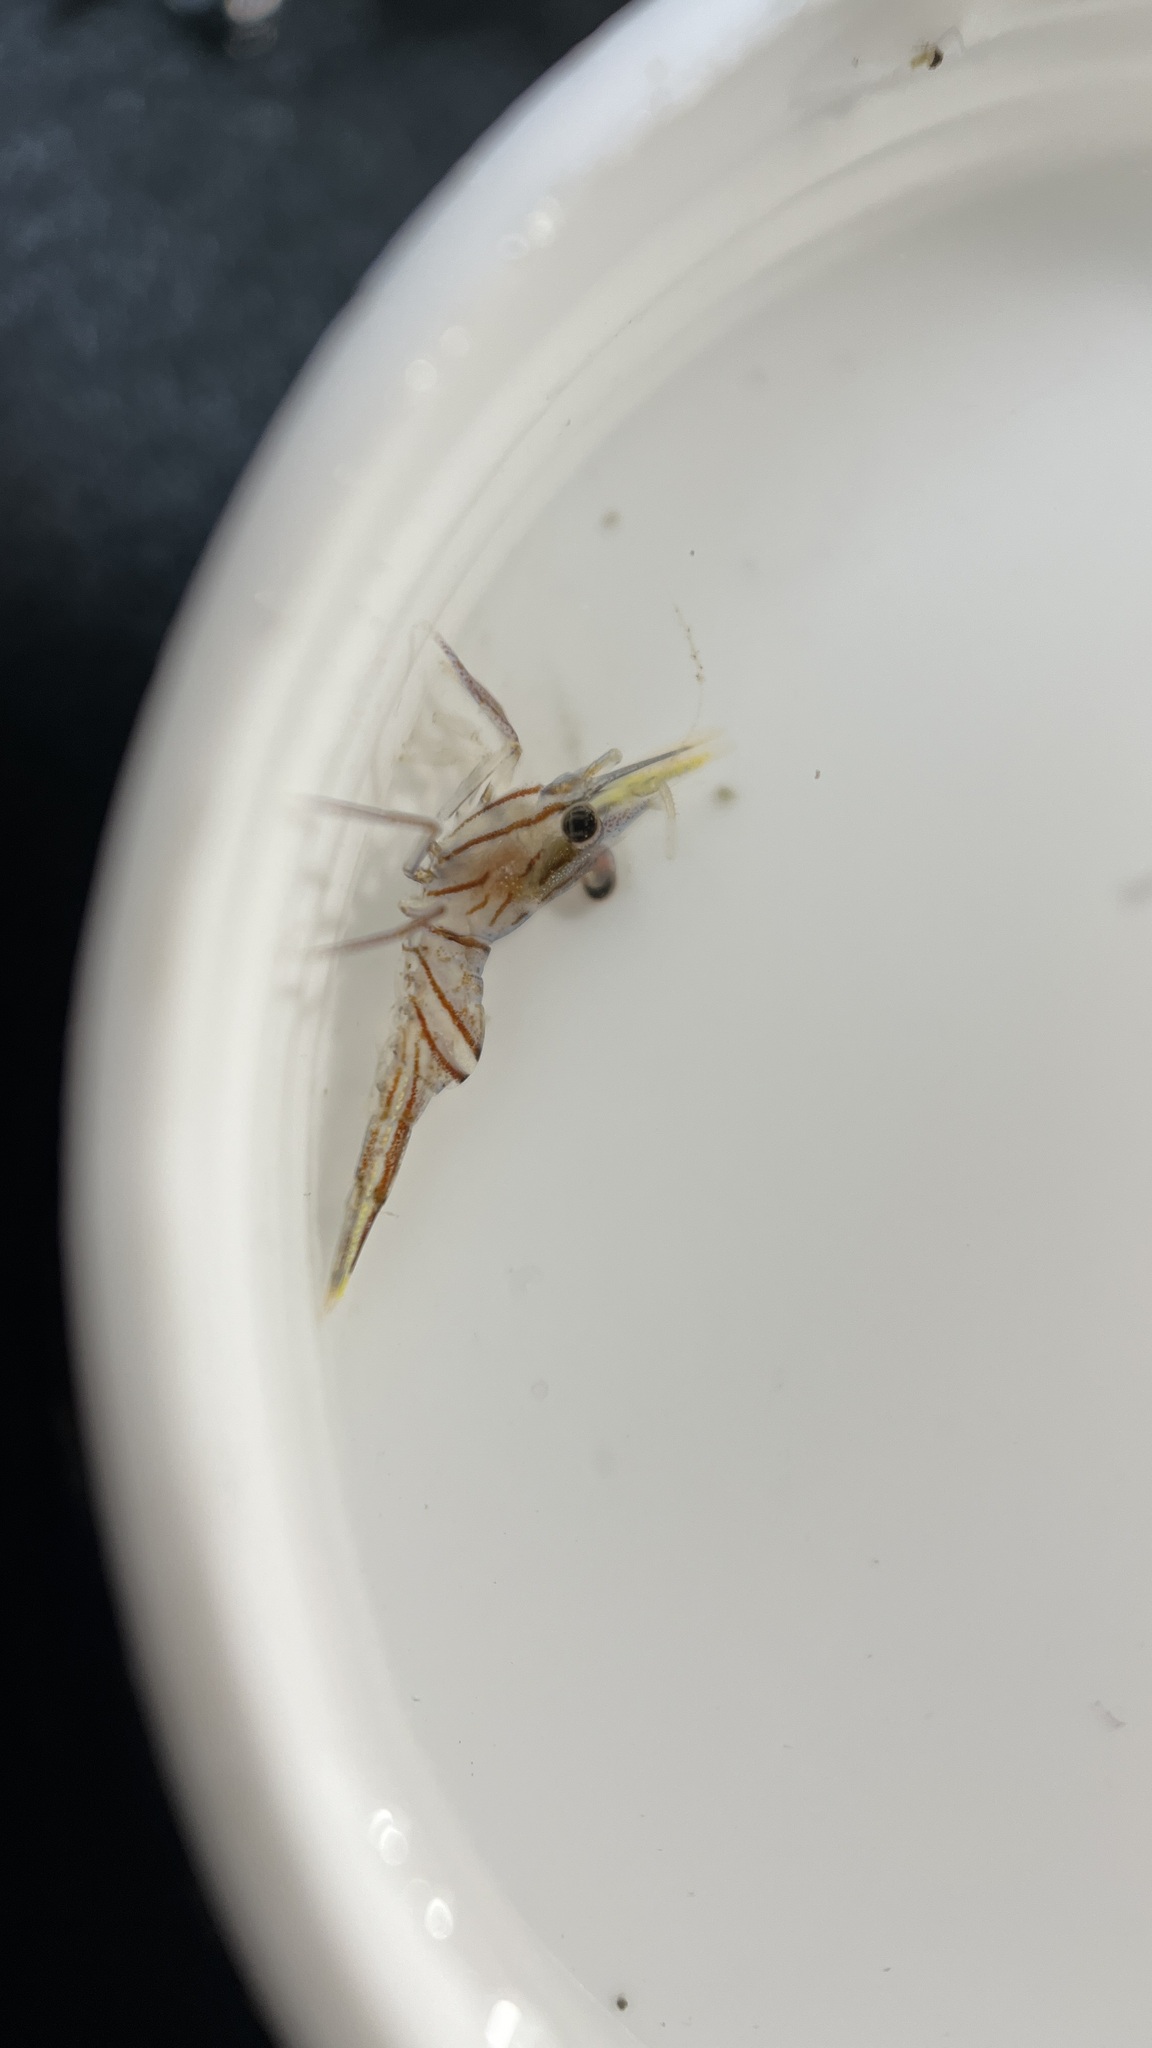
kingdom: Animalia
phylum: Arthropoda
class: Malacostraca
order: Decapoda
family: Rhynchocinetidae
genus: Rhynchocinetes
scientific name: Rhynchocinetes australis
